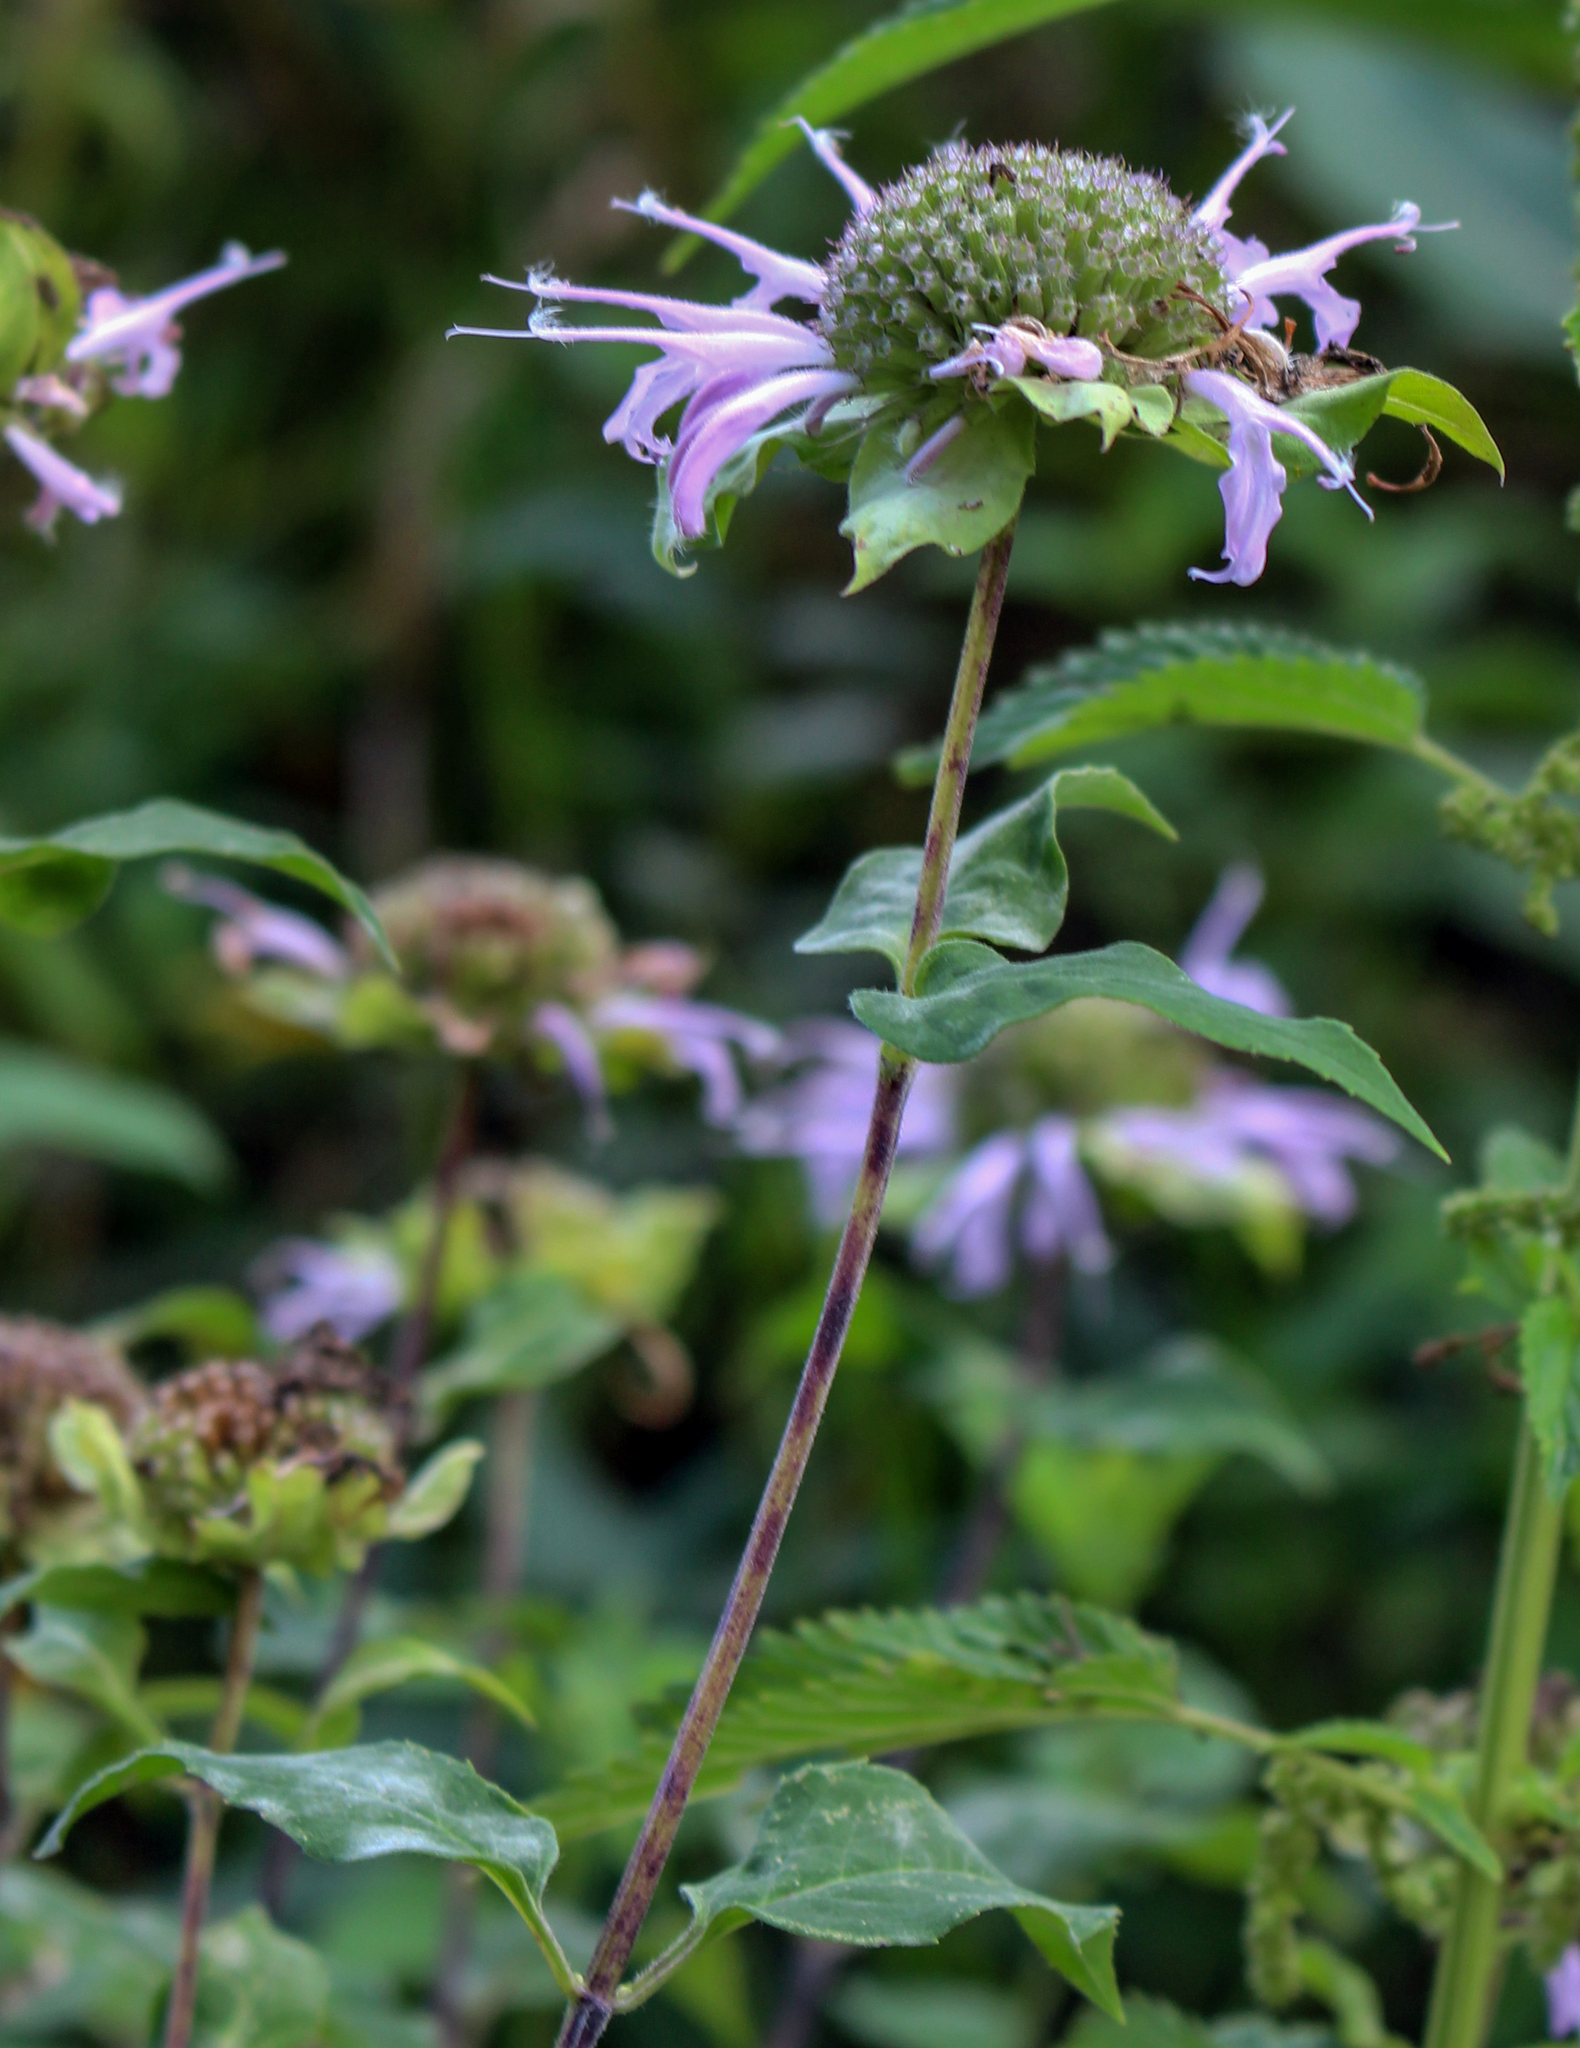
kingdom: Plantae
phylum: Tracheophyta
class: Magnoliopsida
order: Lamiales
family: Lamiaceae
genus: Monarda
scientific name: Monarda fistulosa
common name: Purple beebalm
